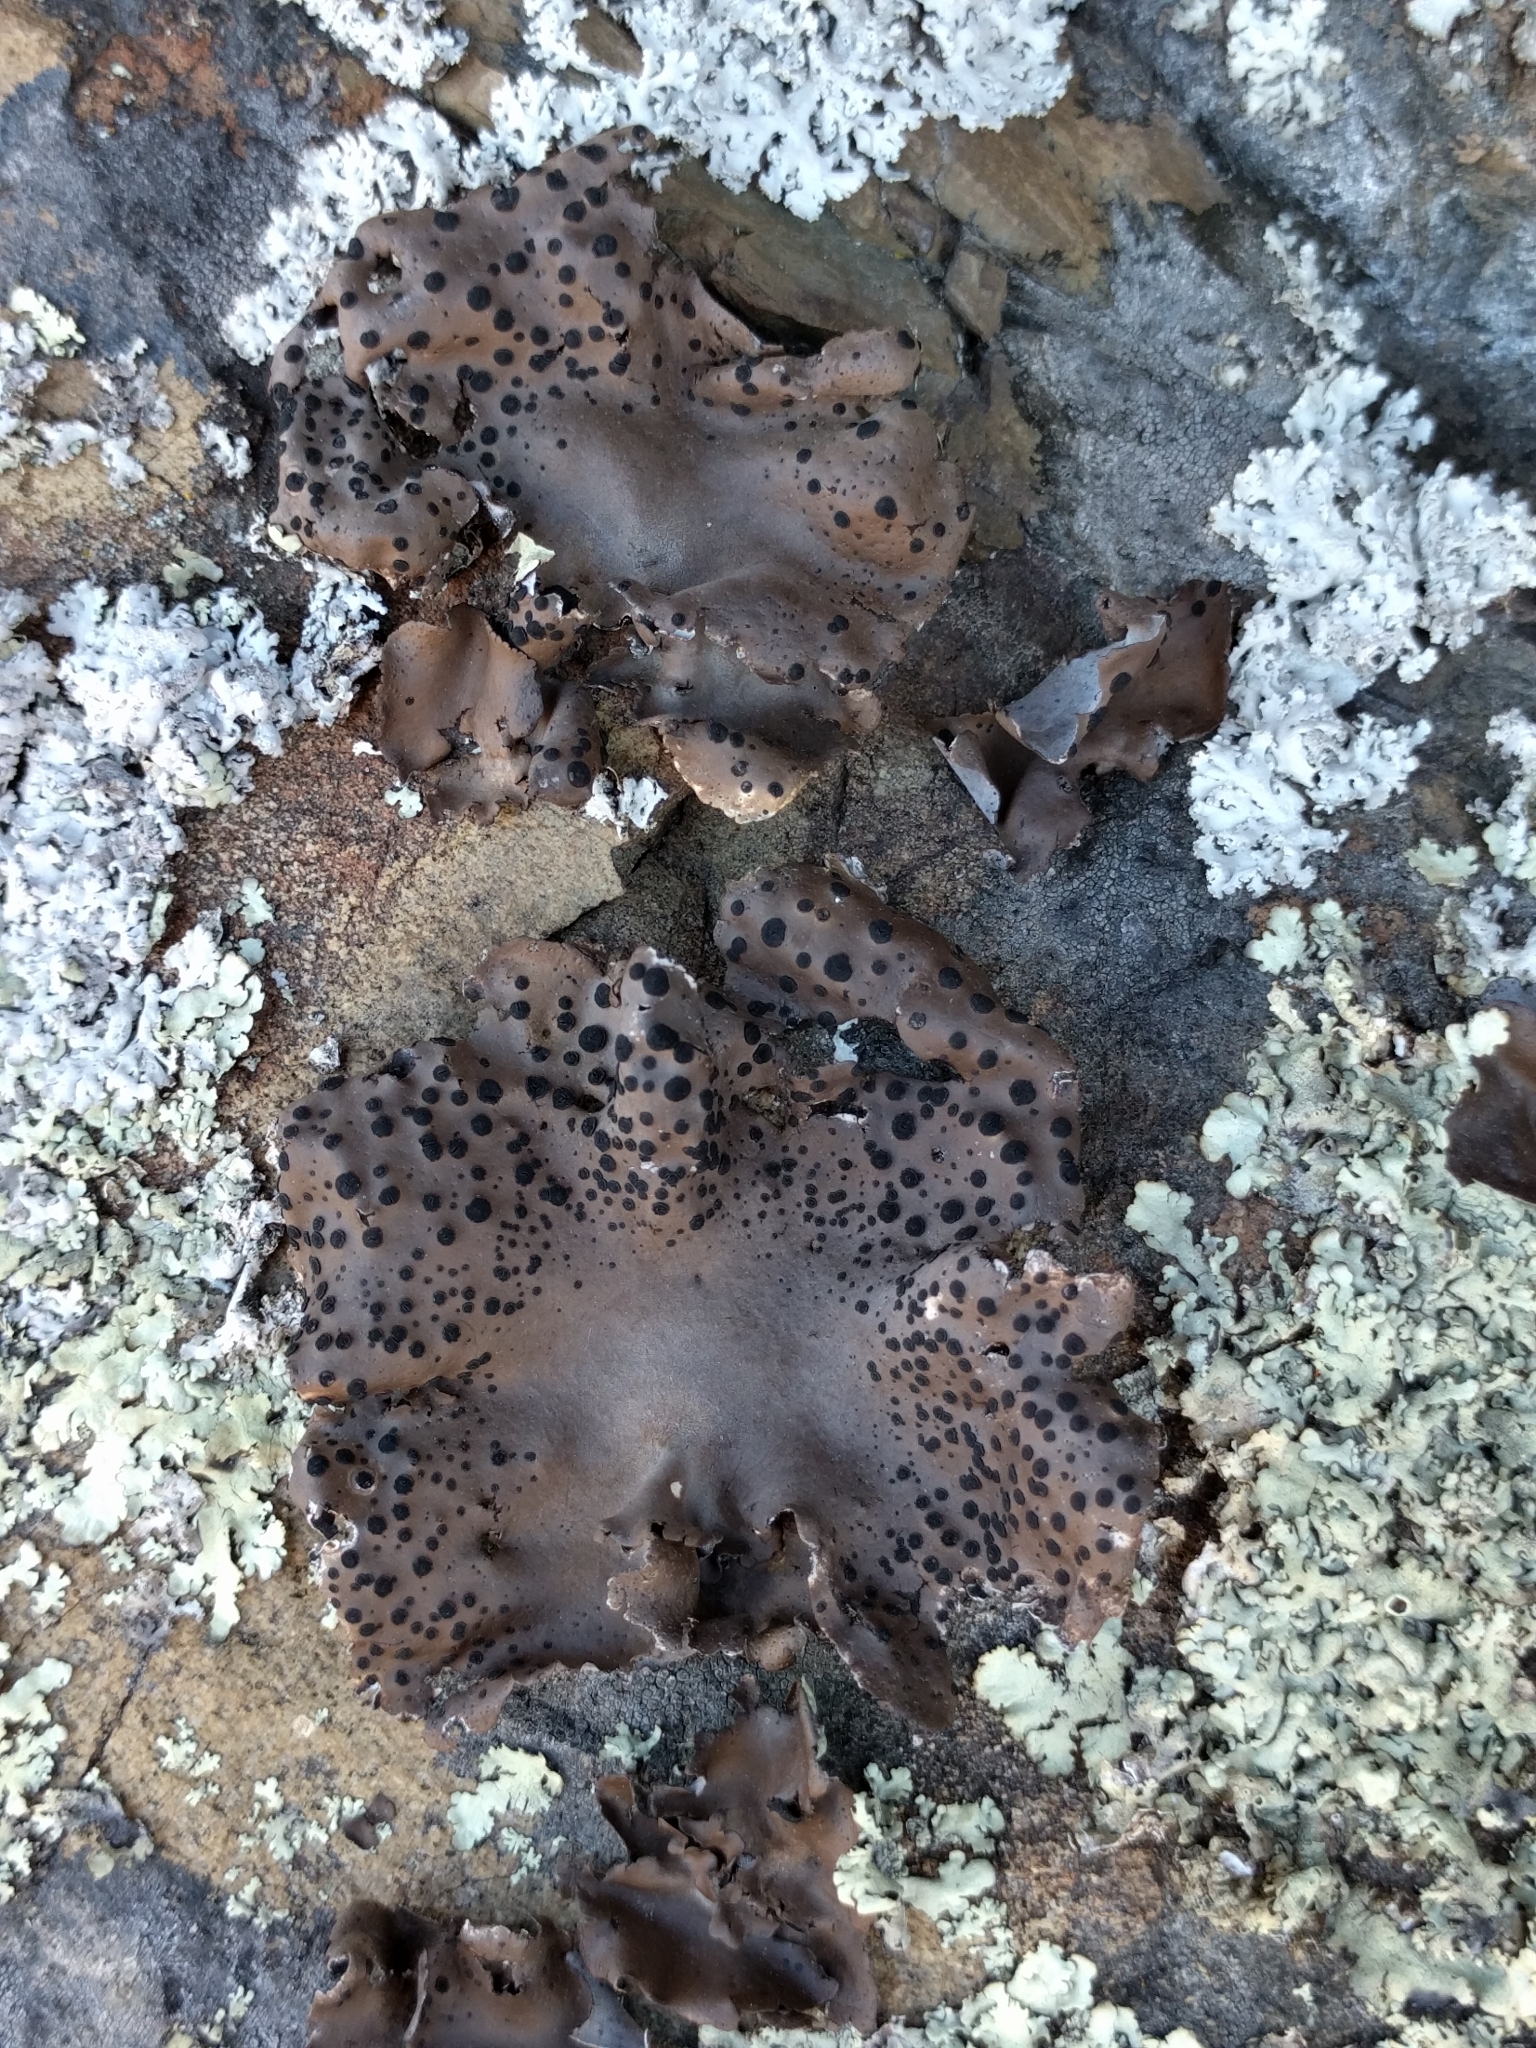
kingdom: Fungi
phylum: Ascomycota
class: Lecanoromycetes
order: Umbilicariales
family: Umbilicariaceae
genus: Umbilicaria
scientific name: Umbilicaria phaea
